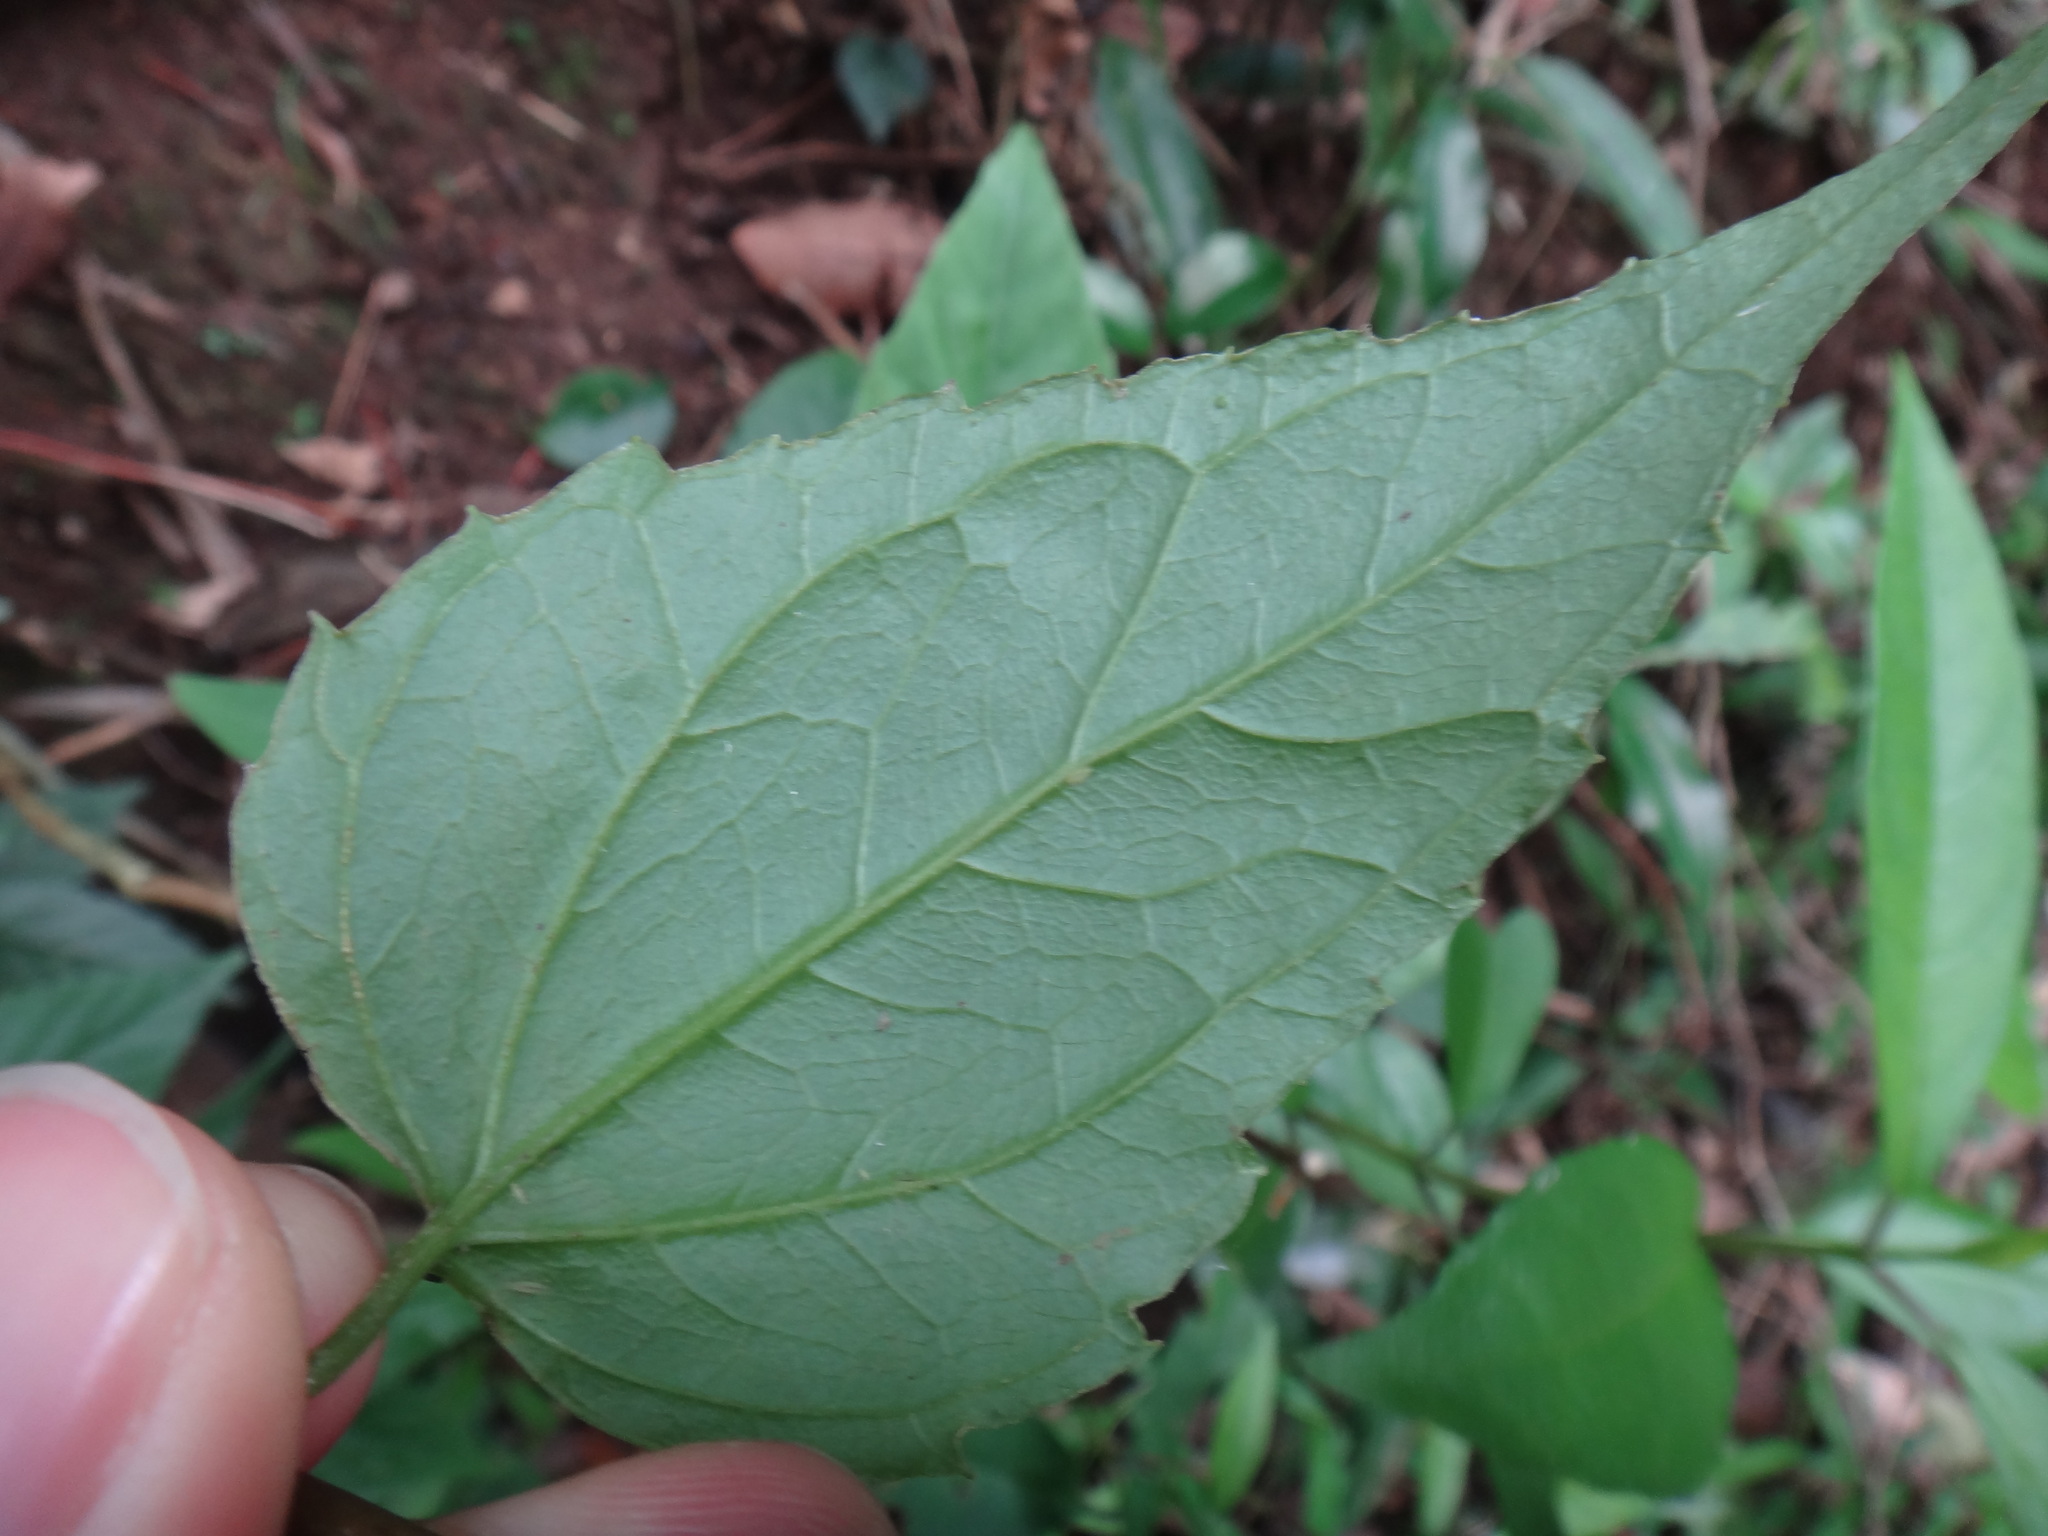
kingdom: Plantae
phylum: Tracheophyta
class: Magnoliopsida
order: Asterales
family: Asteraceae
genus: Eupatorium
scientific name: Eupatorium tashiroi
